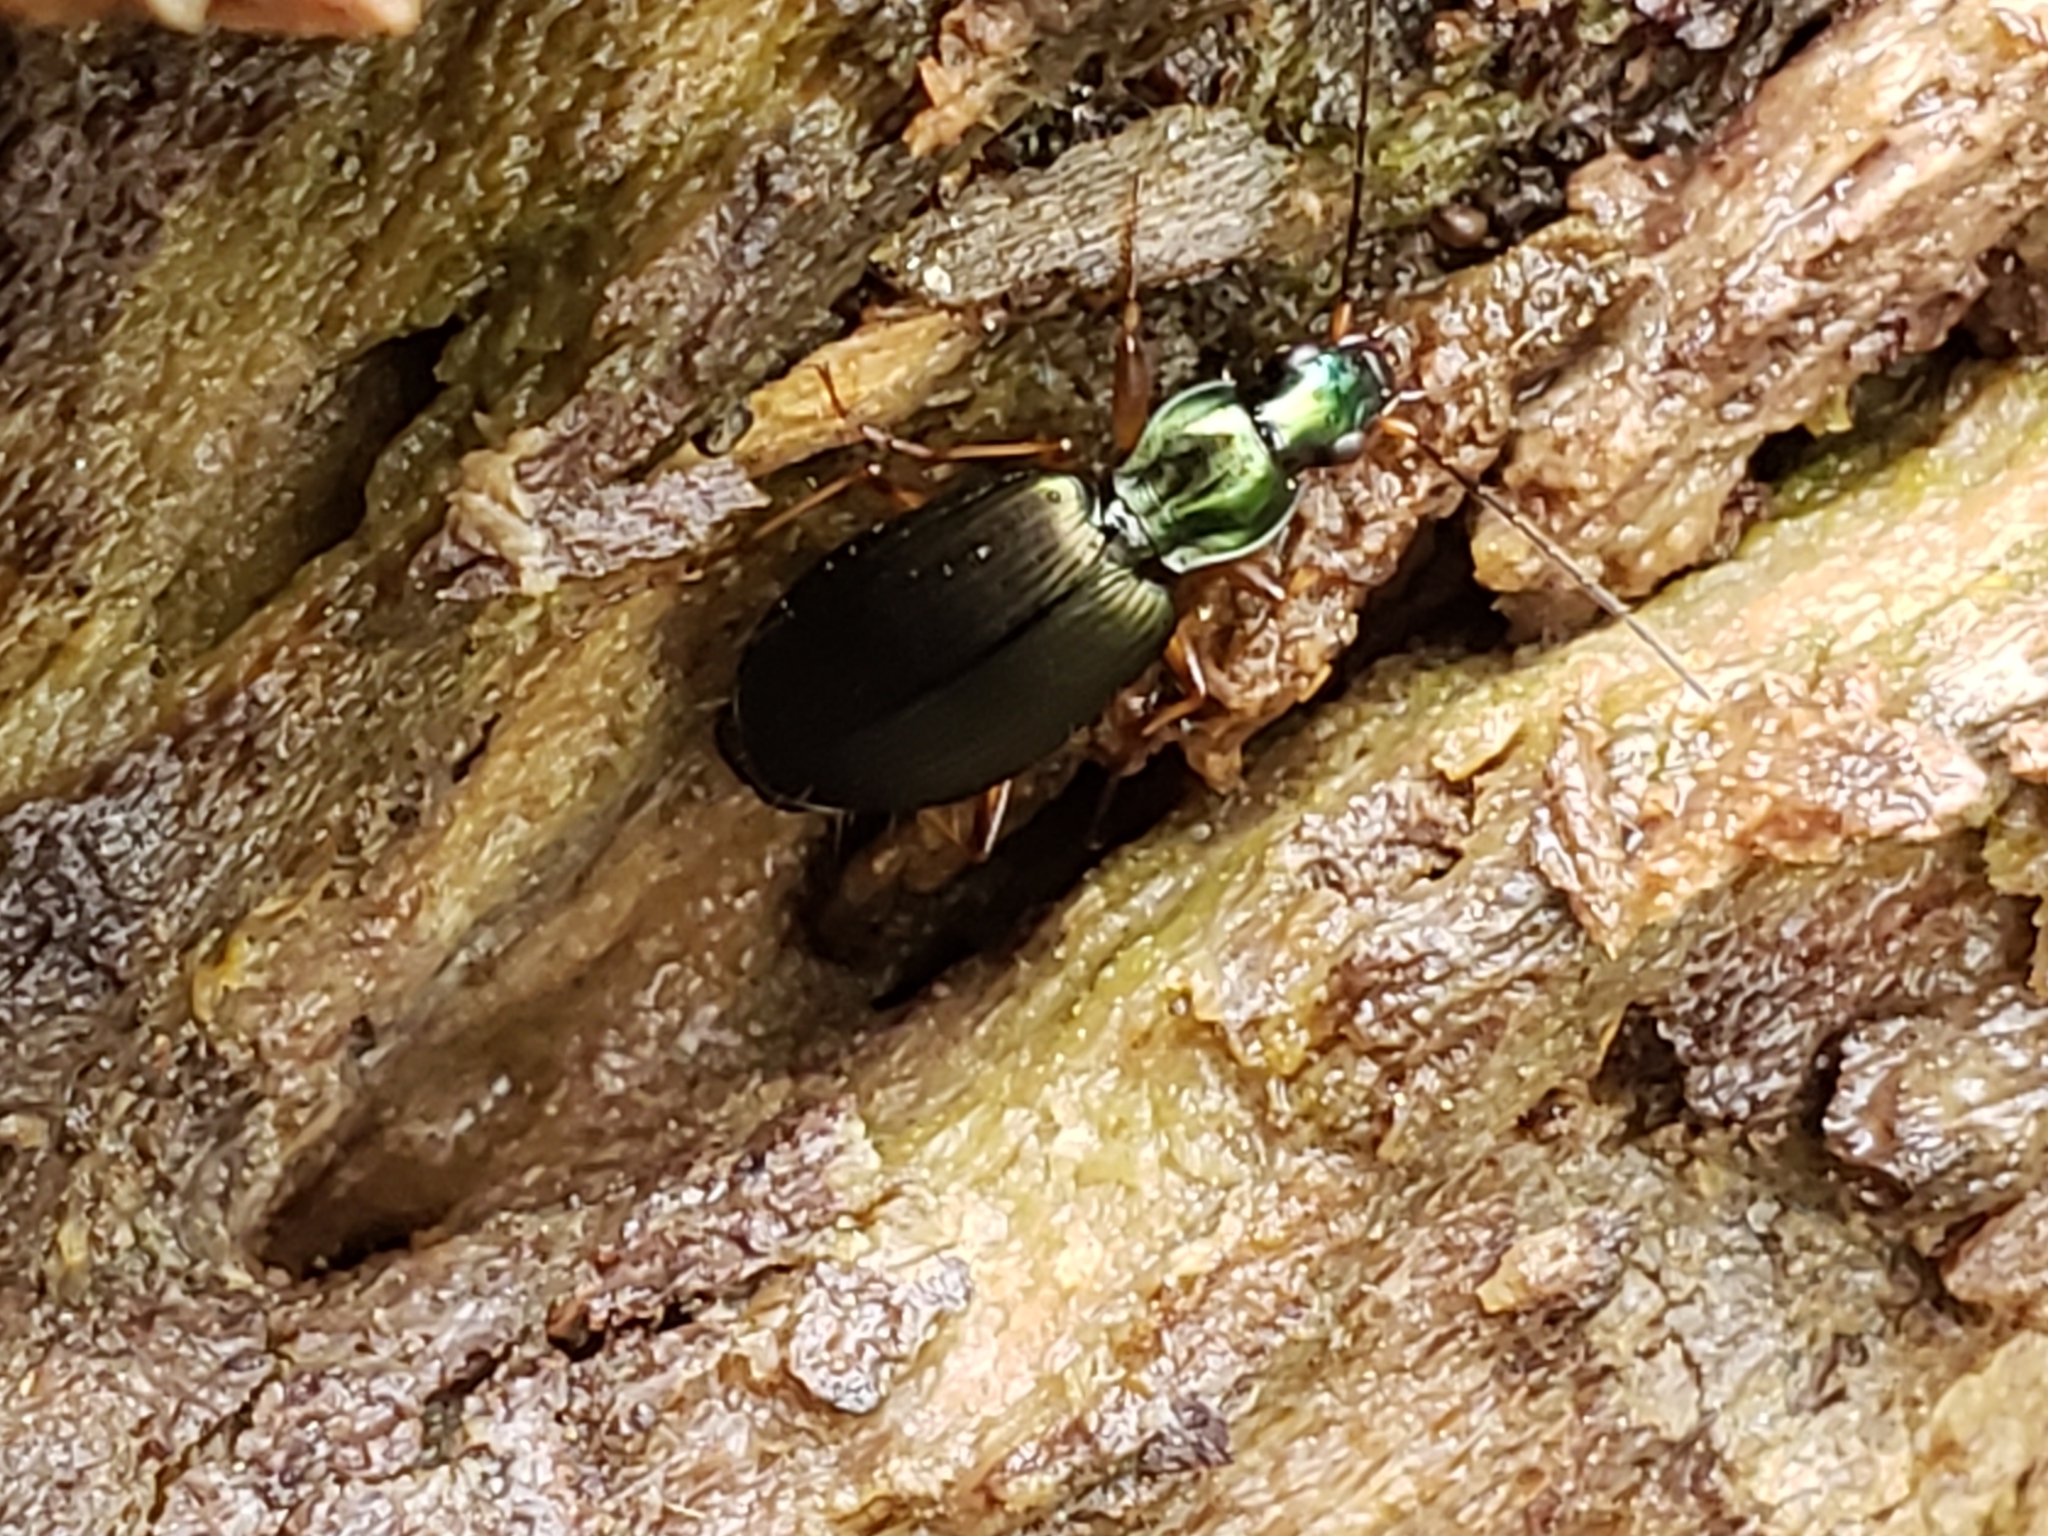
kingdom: Animalia
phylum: Arthropoda
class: Insecta
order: Coleoptera
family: Carabidae
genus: Agonum
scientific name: Agonum extensicolle
